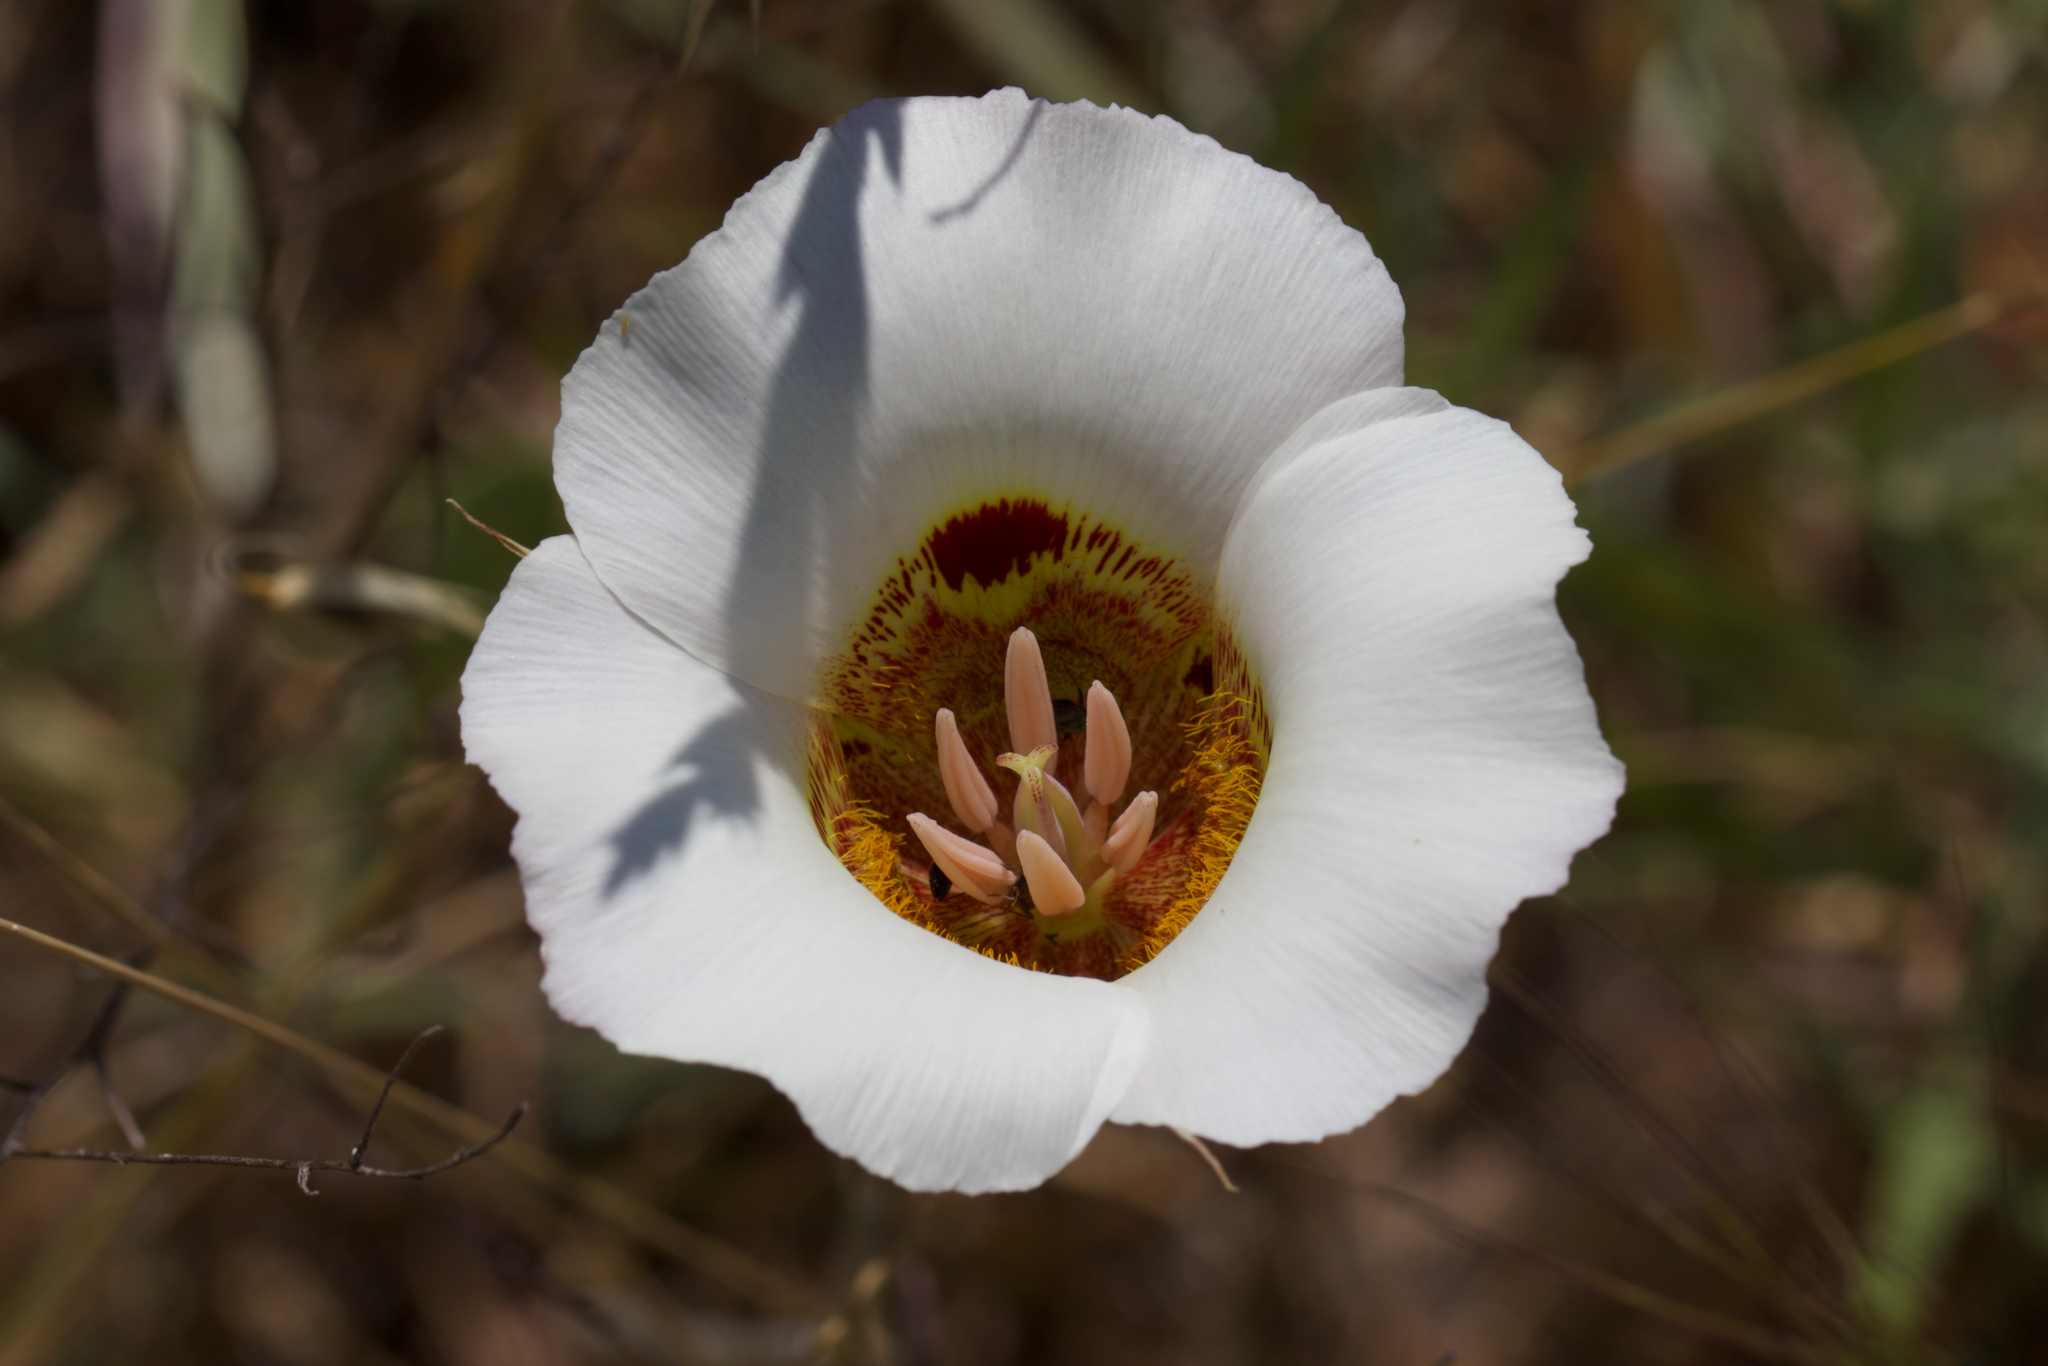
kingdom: Plantae
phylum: Tracheophyta
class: Liliopsida
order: Liliales
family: Liliaceae
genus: Calochortus
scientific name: Calochortus vestae
